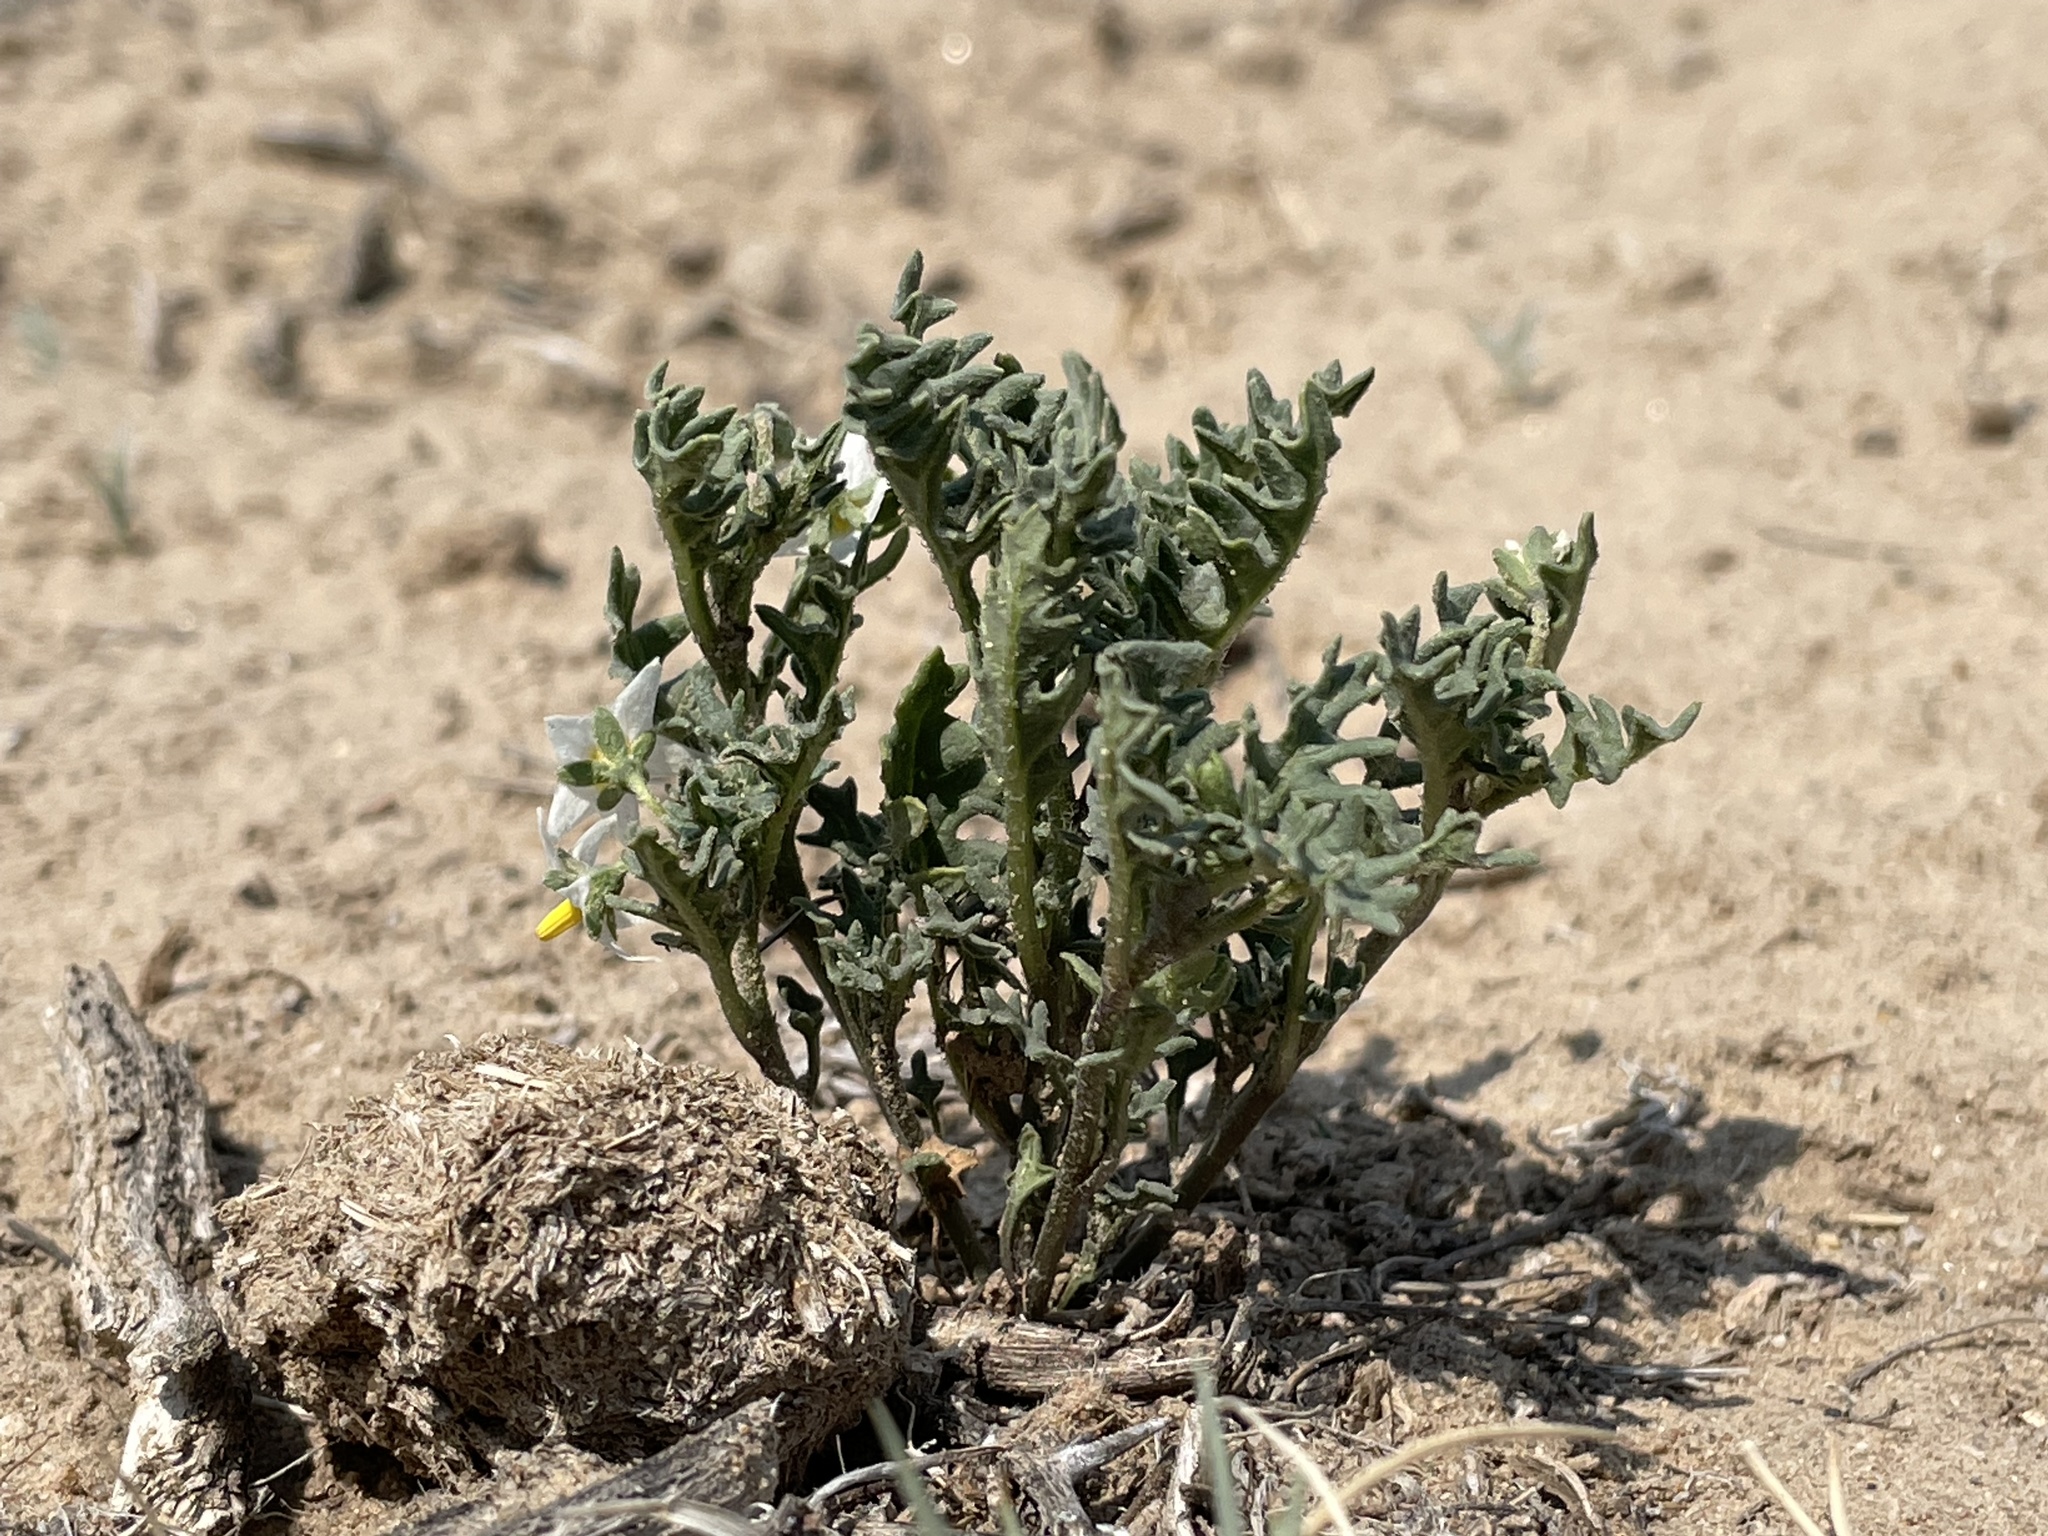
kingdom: Plantae
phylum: Tracheophyta
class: Magnoliopsida
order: Solanales
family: Solanaceae
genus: Solanum
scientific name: Solanum triflorum
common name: Small nightshade
